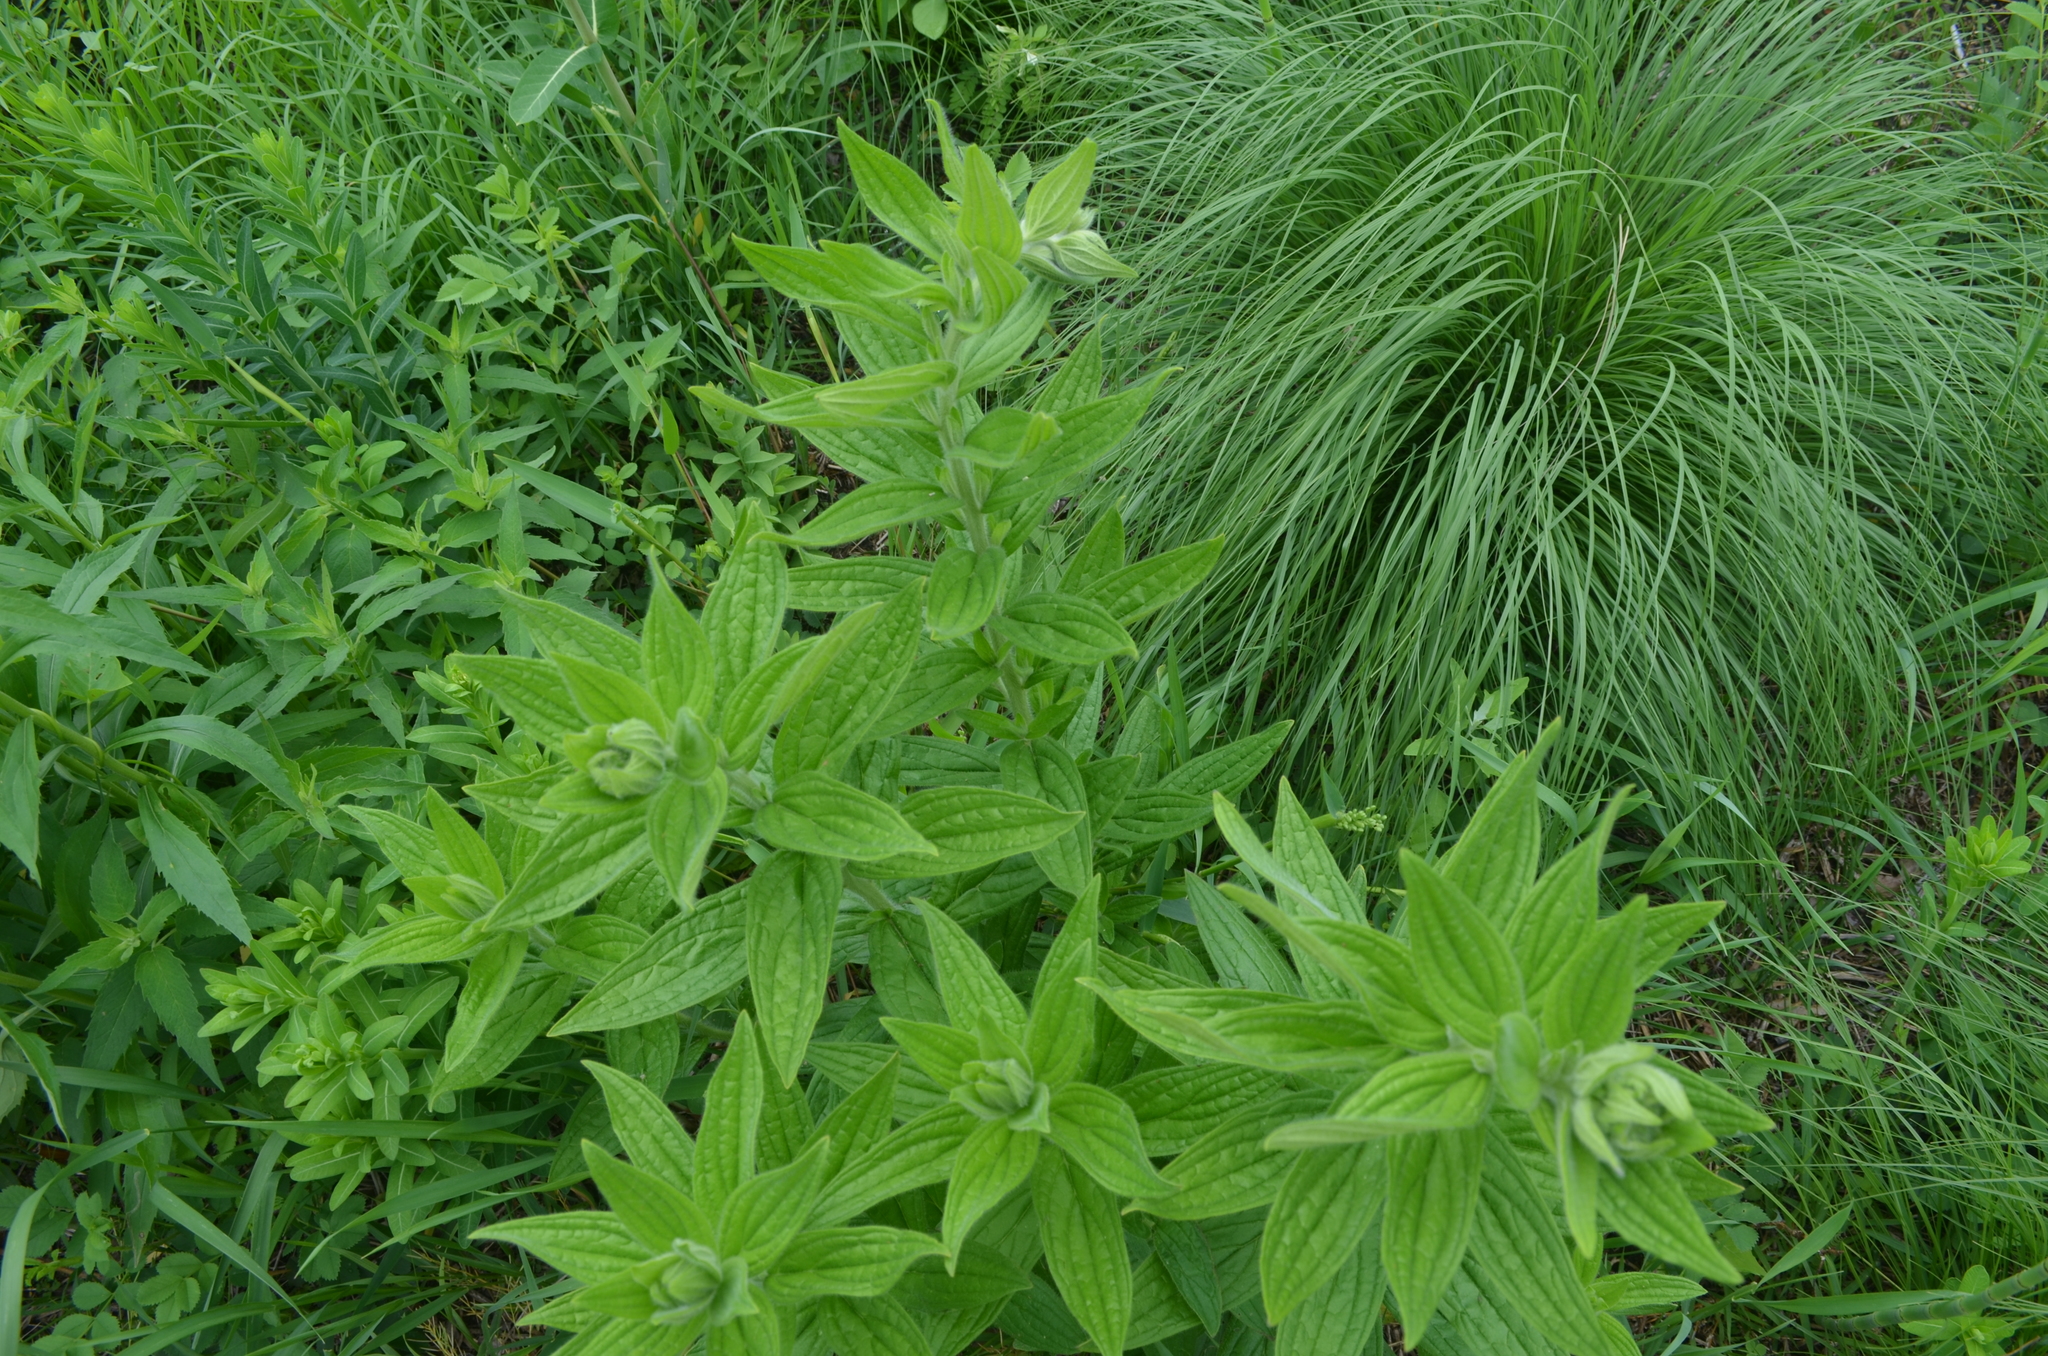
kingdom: Plantae
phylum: Tracheophyta
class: Magnoliopsida
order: Boraginales
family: Boraginaceae
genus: Lithospermum
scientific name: Lithospermum parviflorum
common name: Hairy false gromwell
